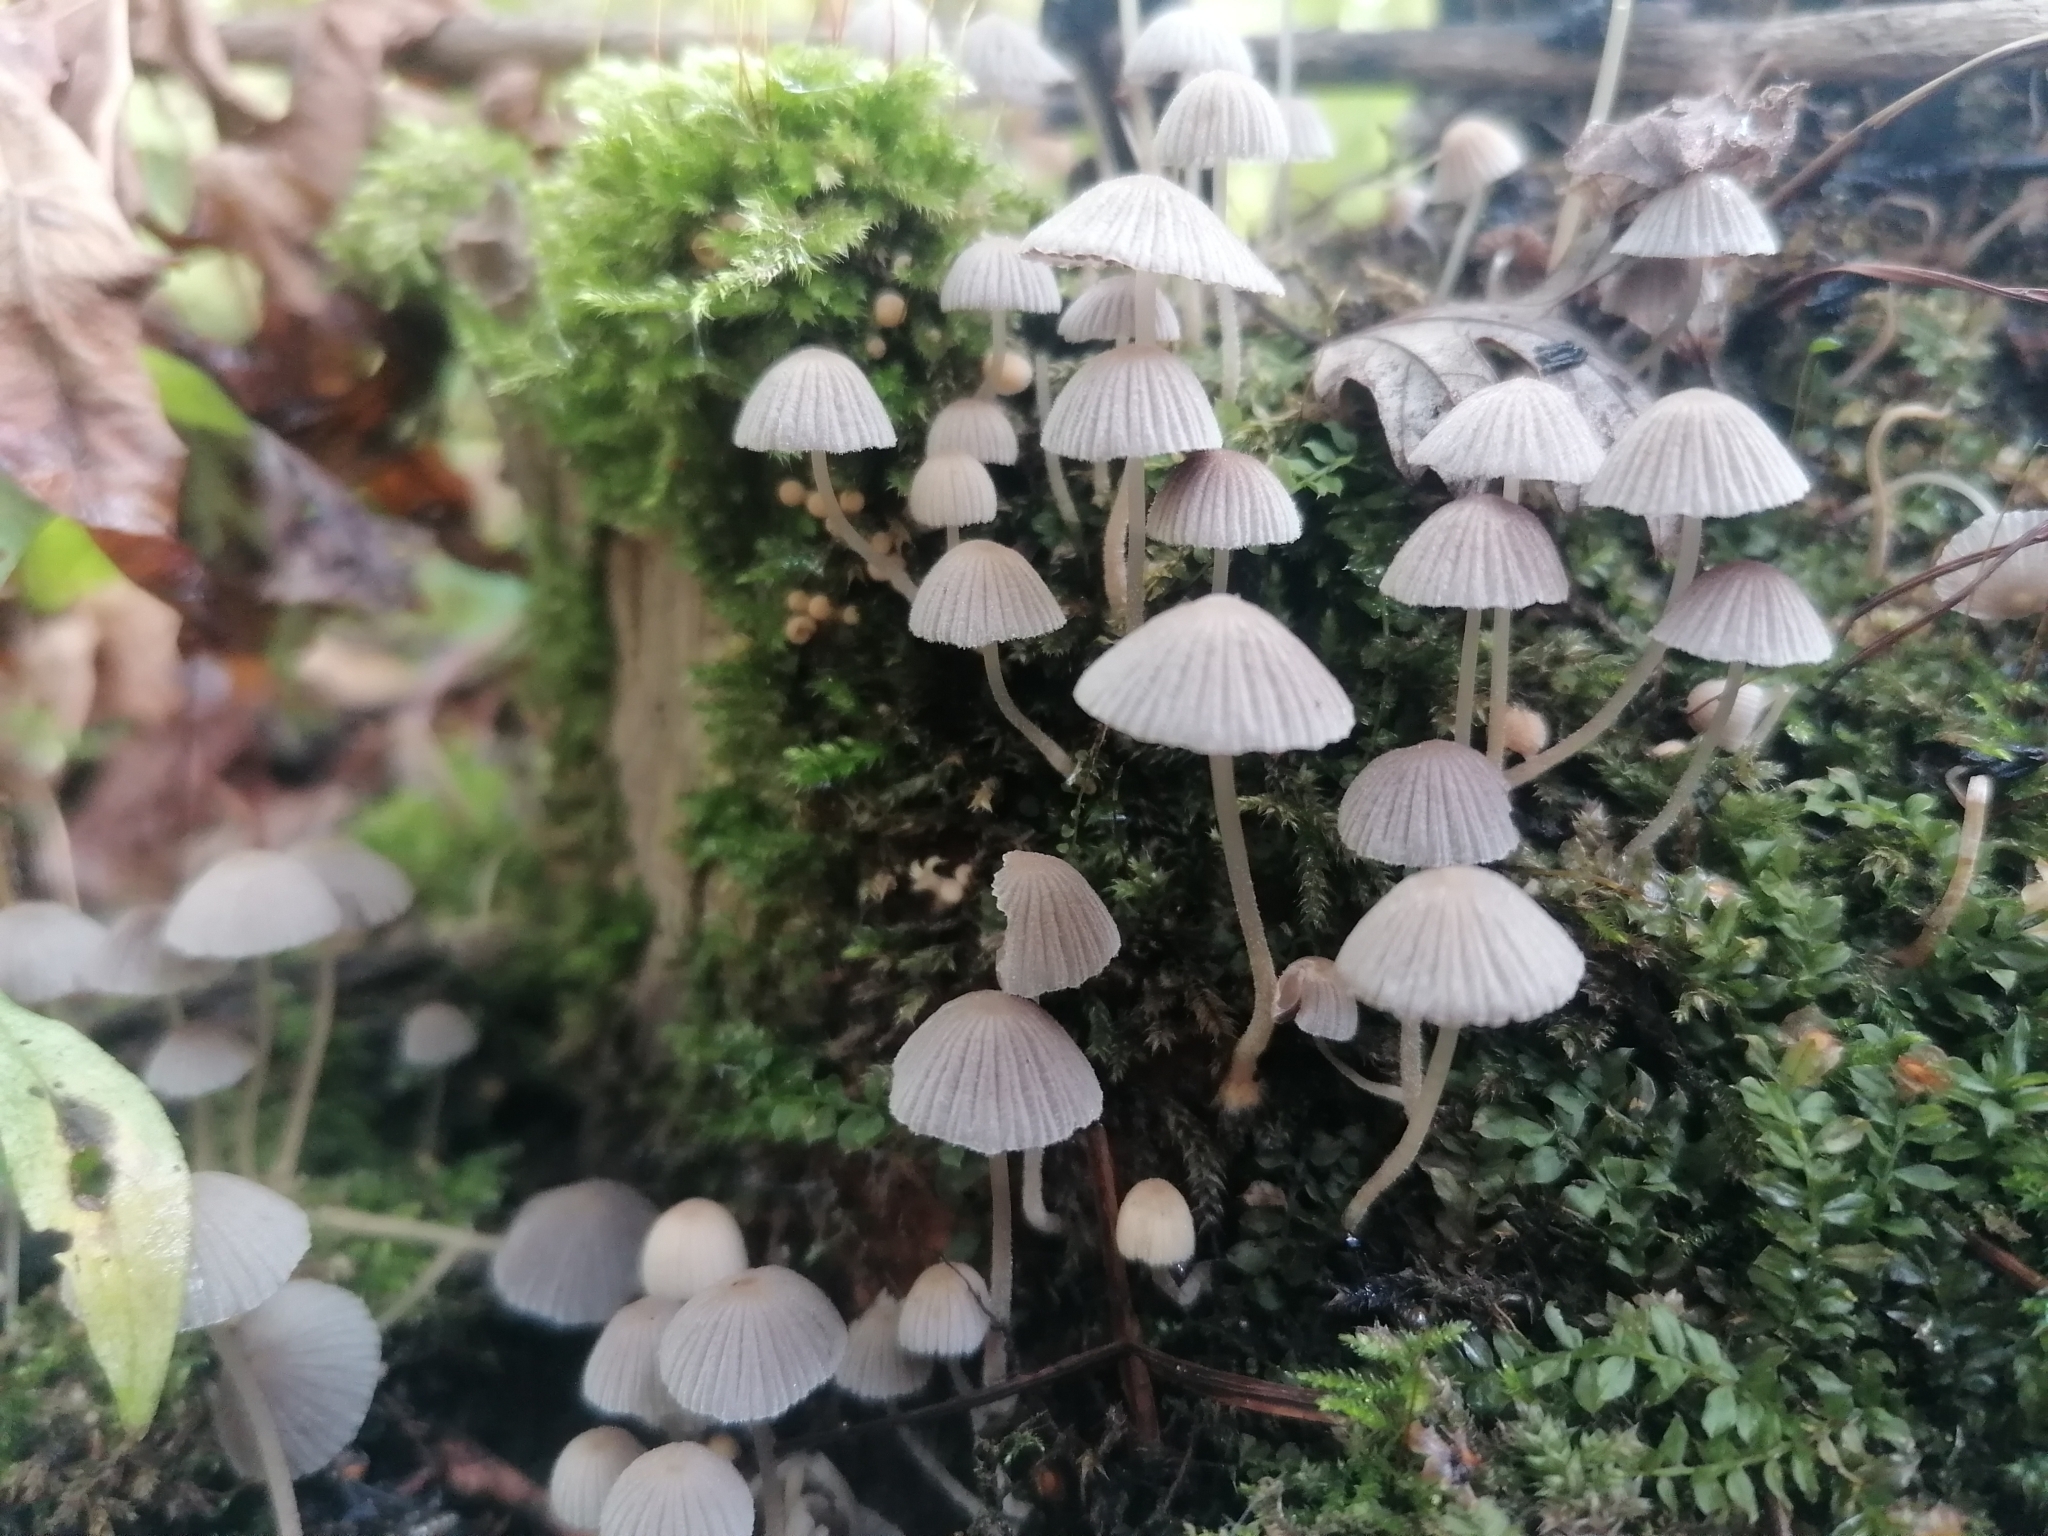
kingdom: Fungi
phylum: Basidiomycota
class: Agaricomycetes
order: Agaricales
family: Psathyrellaceae
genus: Coprinellus
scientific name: Coprinellus disseminatus
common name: Fairies' bonnets
